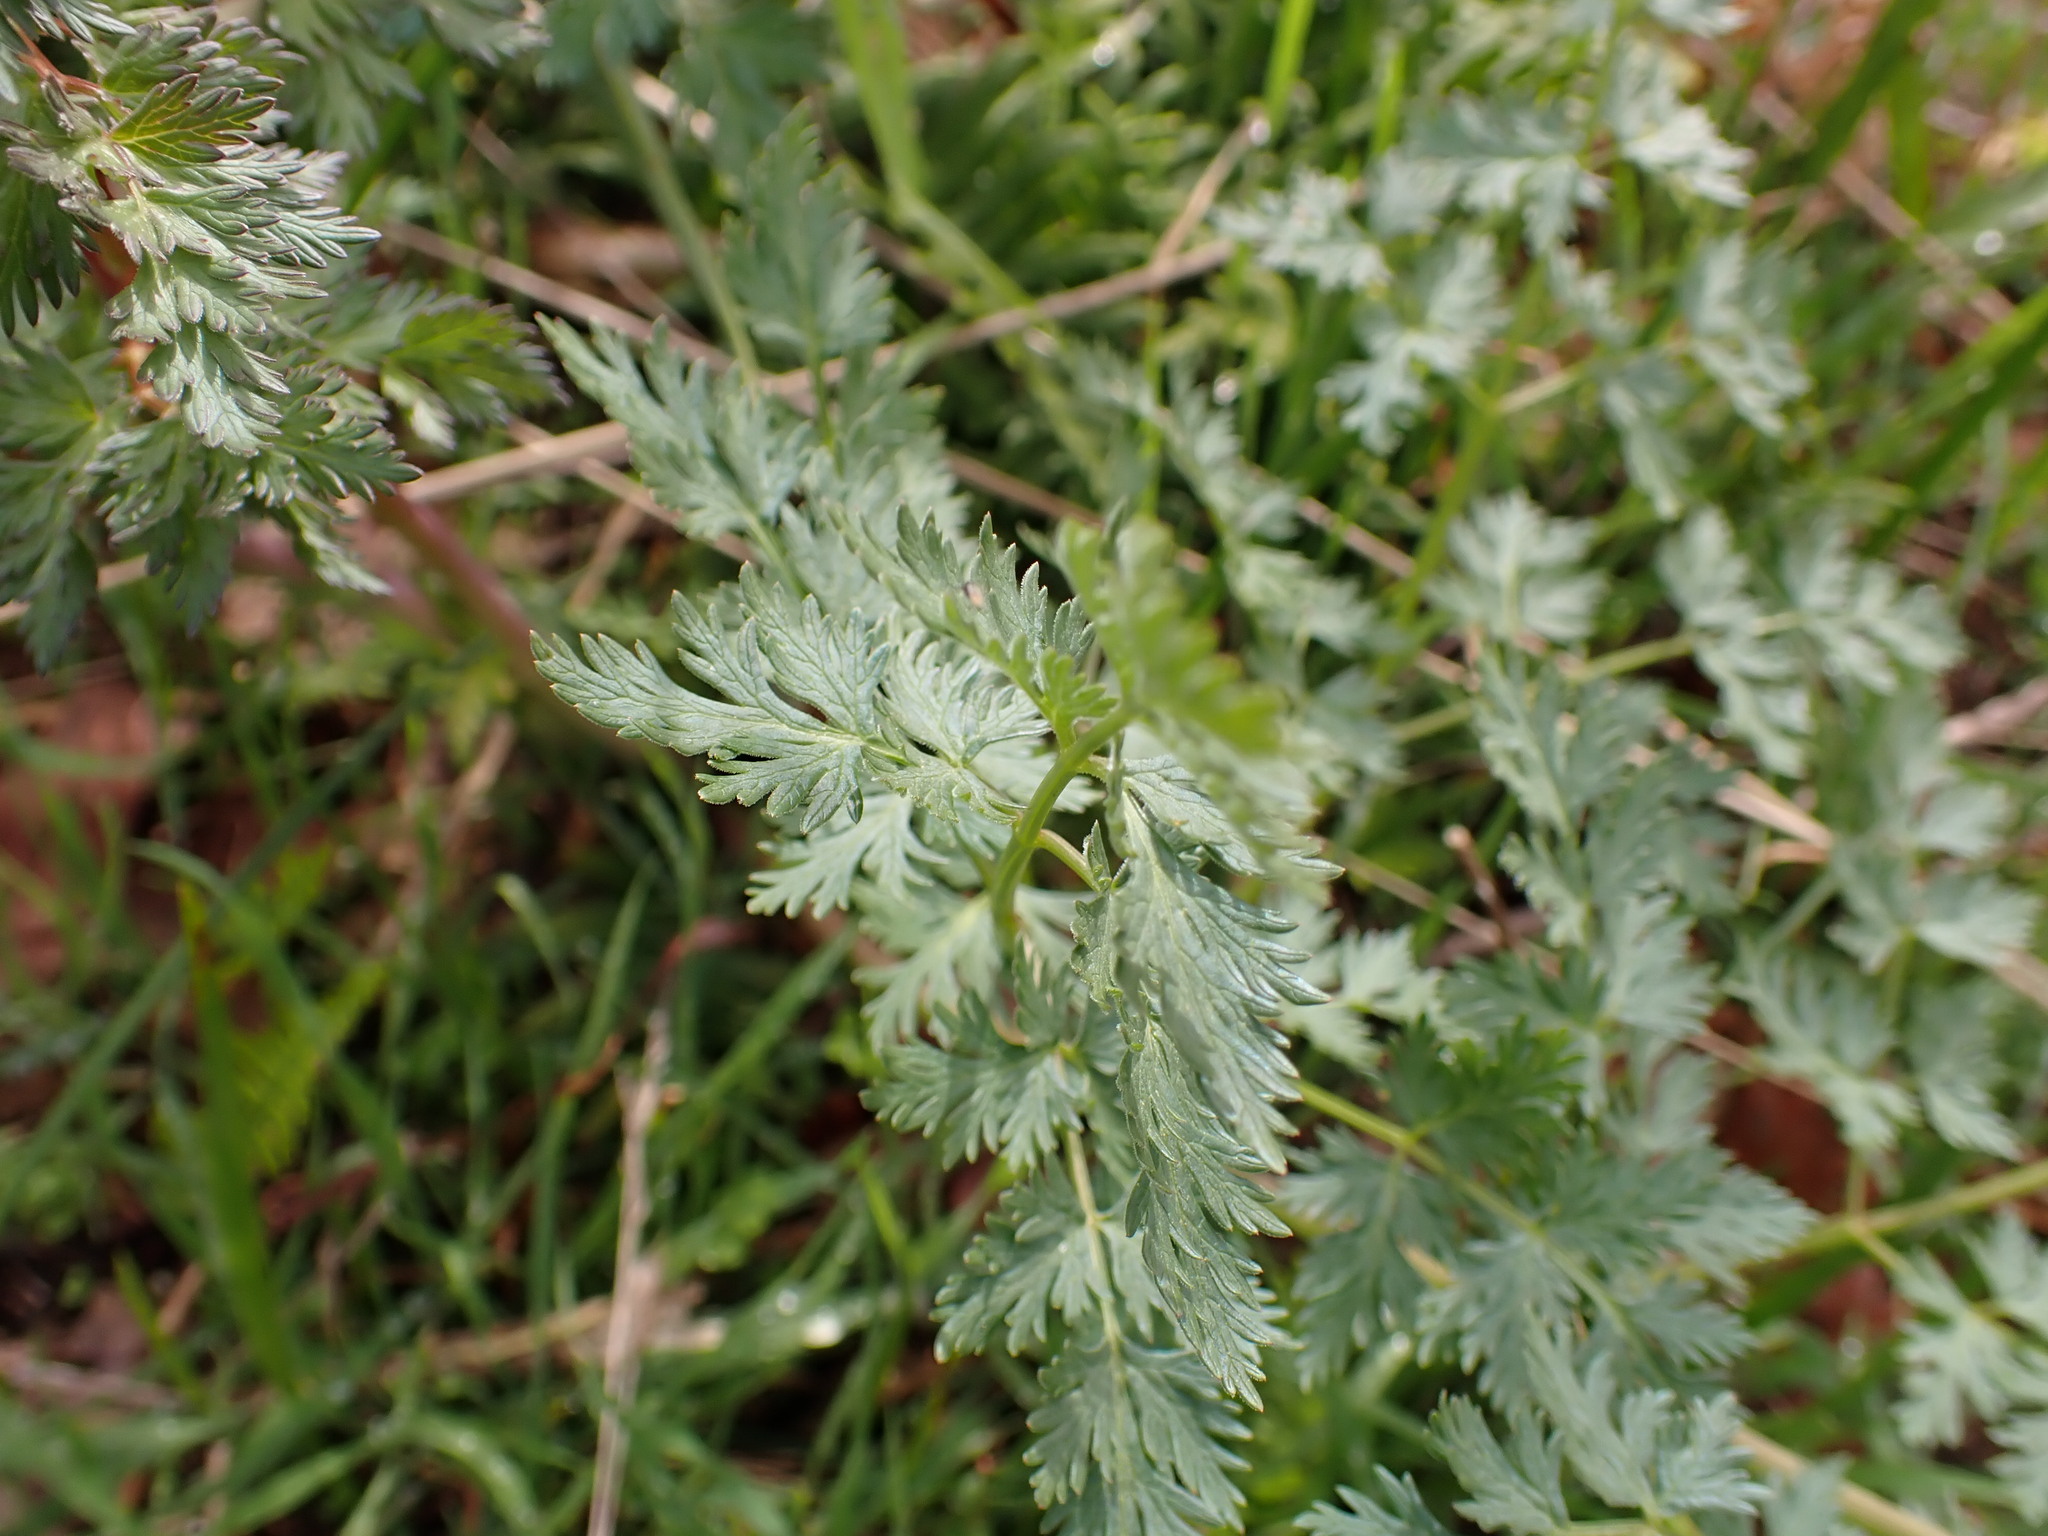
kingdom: Plantae
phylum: Tracheophyta
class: Magnoliopsida
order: Apiales
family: Apiaceae
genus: Lomatium
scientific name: Lomatium dissectum
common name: Lomatium
